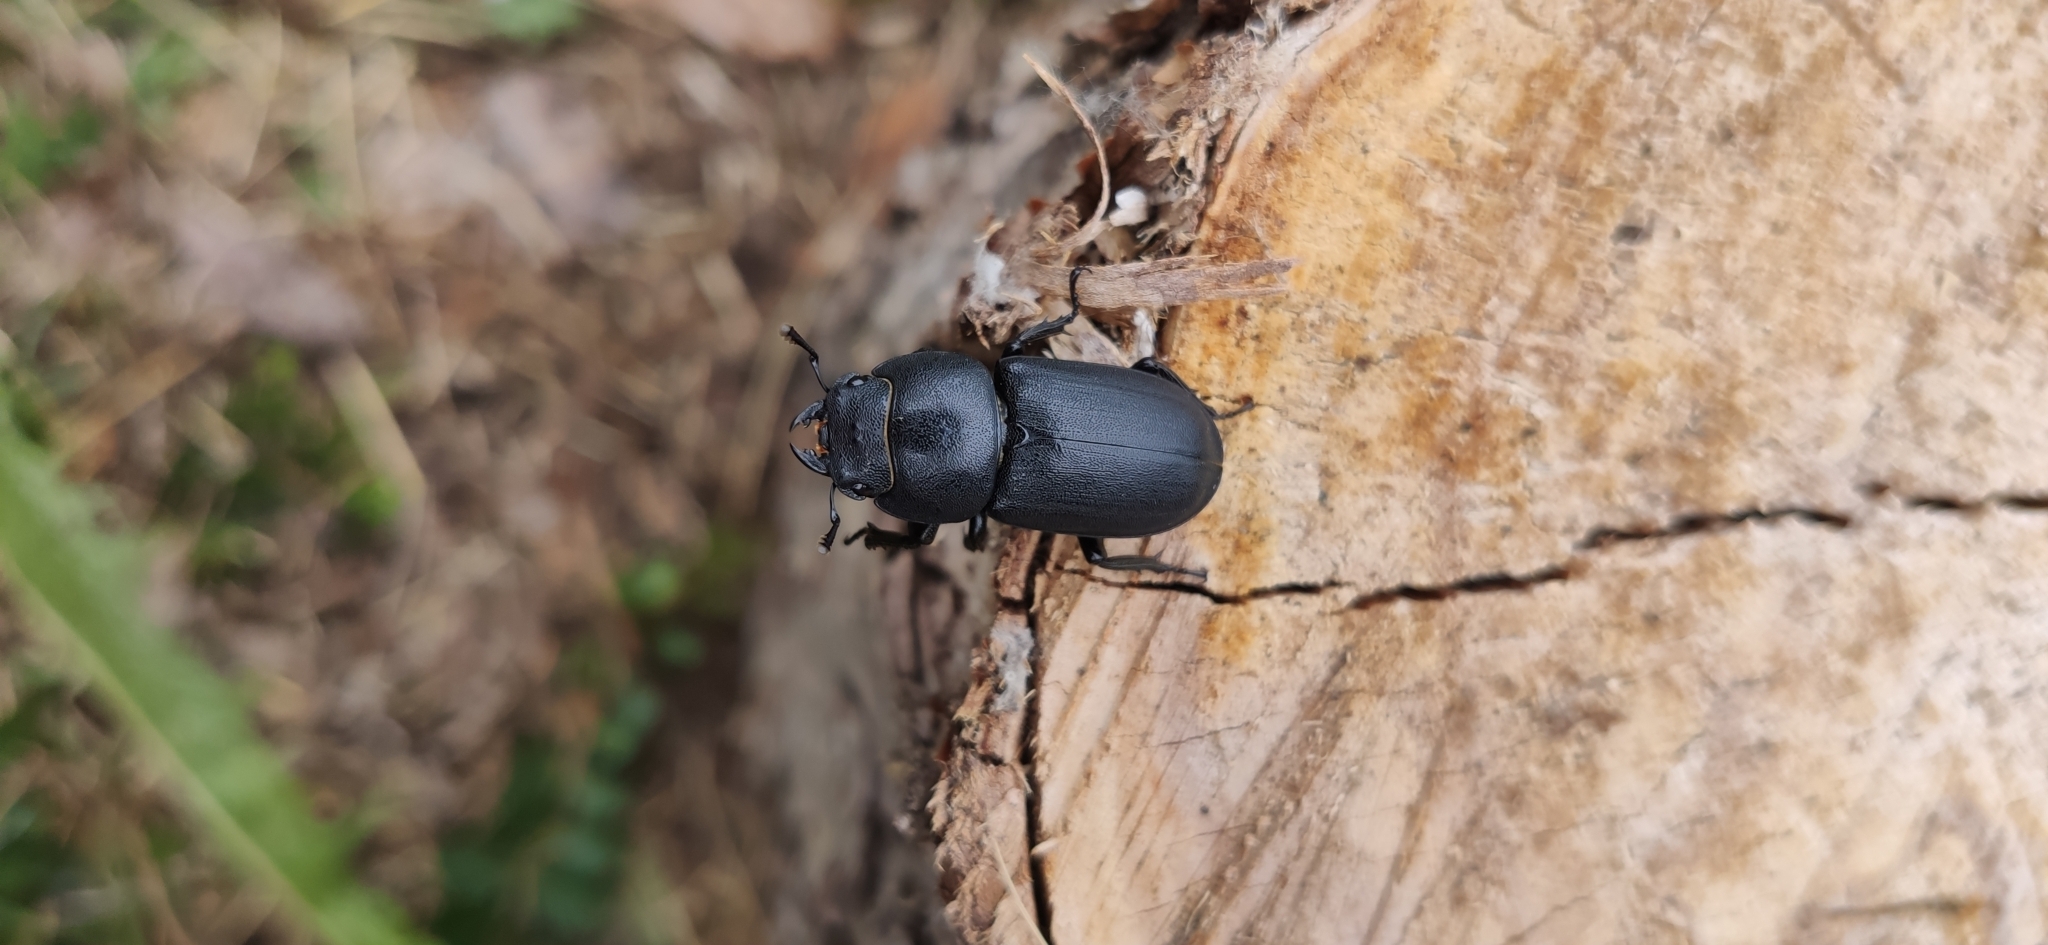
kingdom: Animalia
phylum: Arthropoda
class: Insecta
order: Coleoptera
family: Lucanidae
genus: Dorcus
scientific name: Dorcus parallelipipedus
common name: Lesser stag beetle
